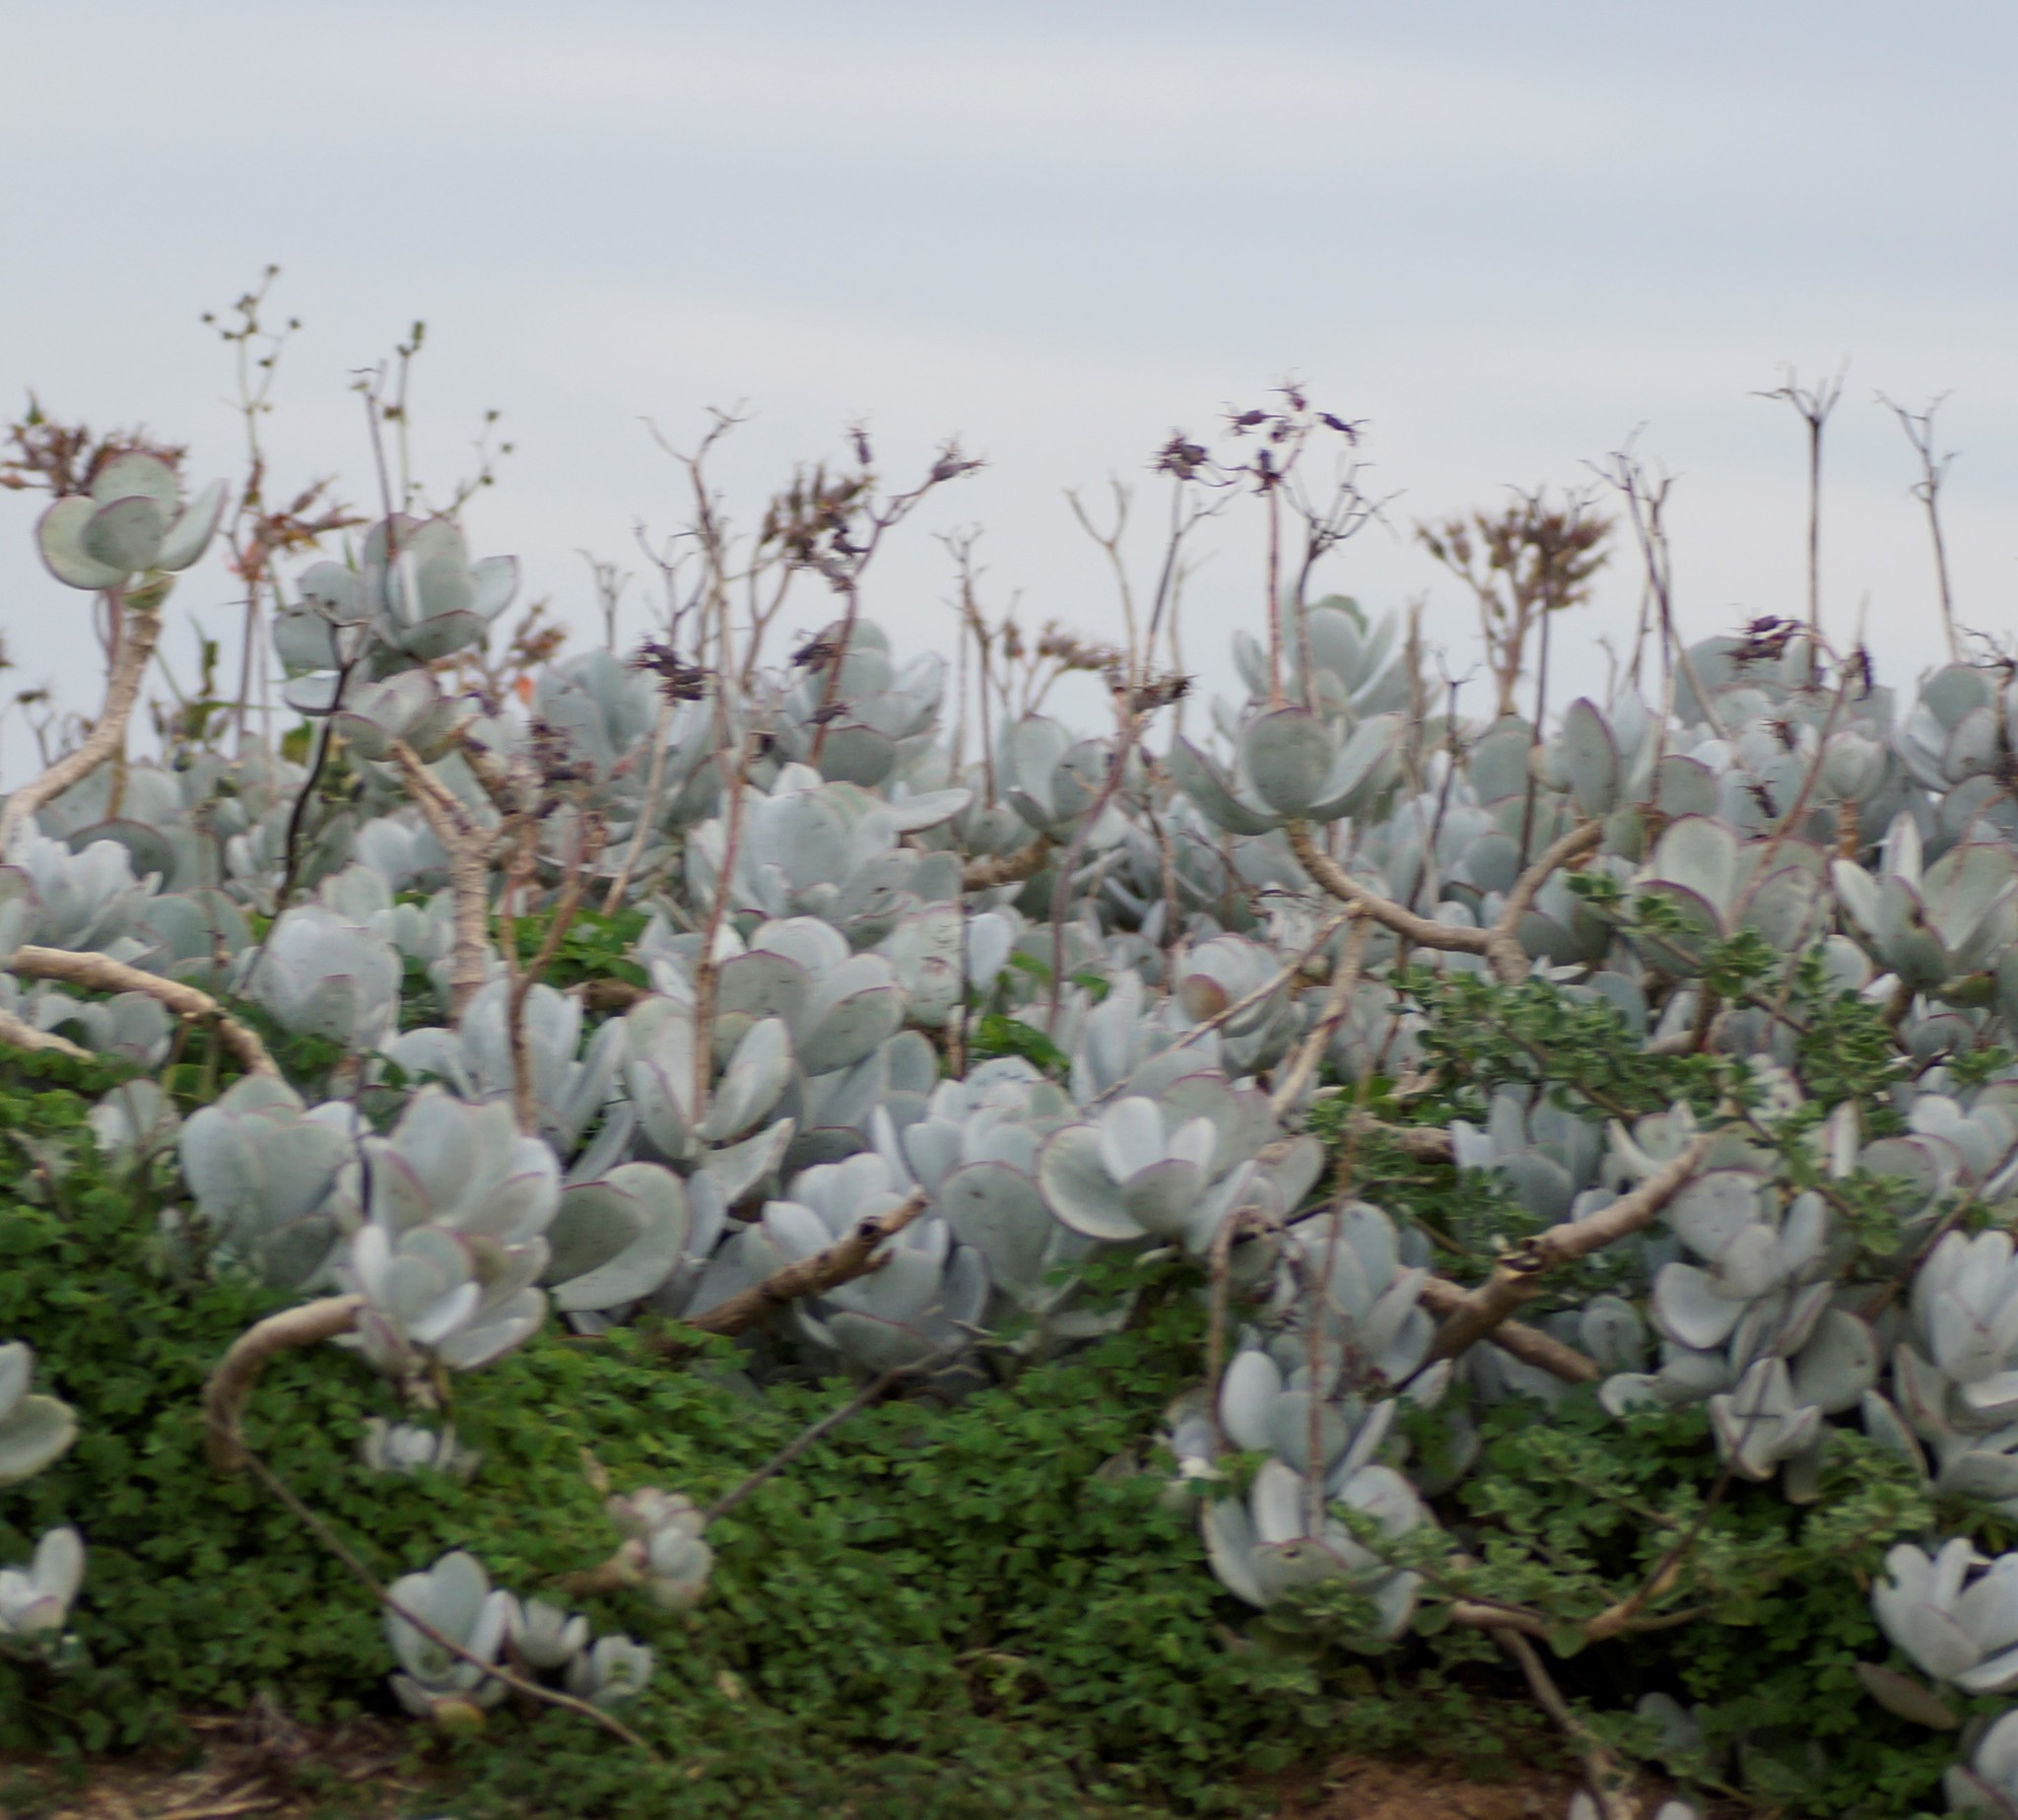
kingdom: Plantae
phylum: Tracheophyta
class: Magnoliopsida
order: Saxifragales
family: Crassulaceae
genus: Cotyledon
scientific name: Cotyledon orbiculata
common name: Pig's ear
